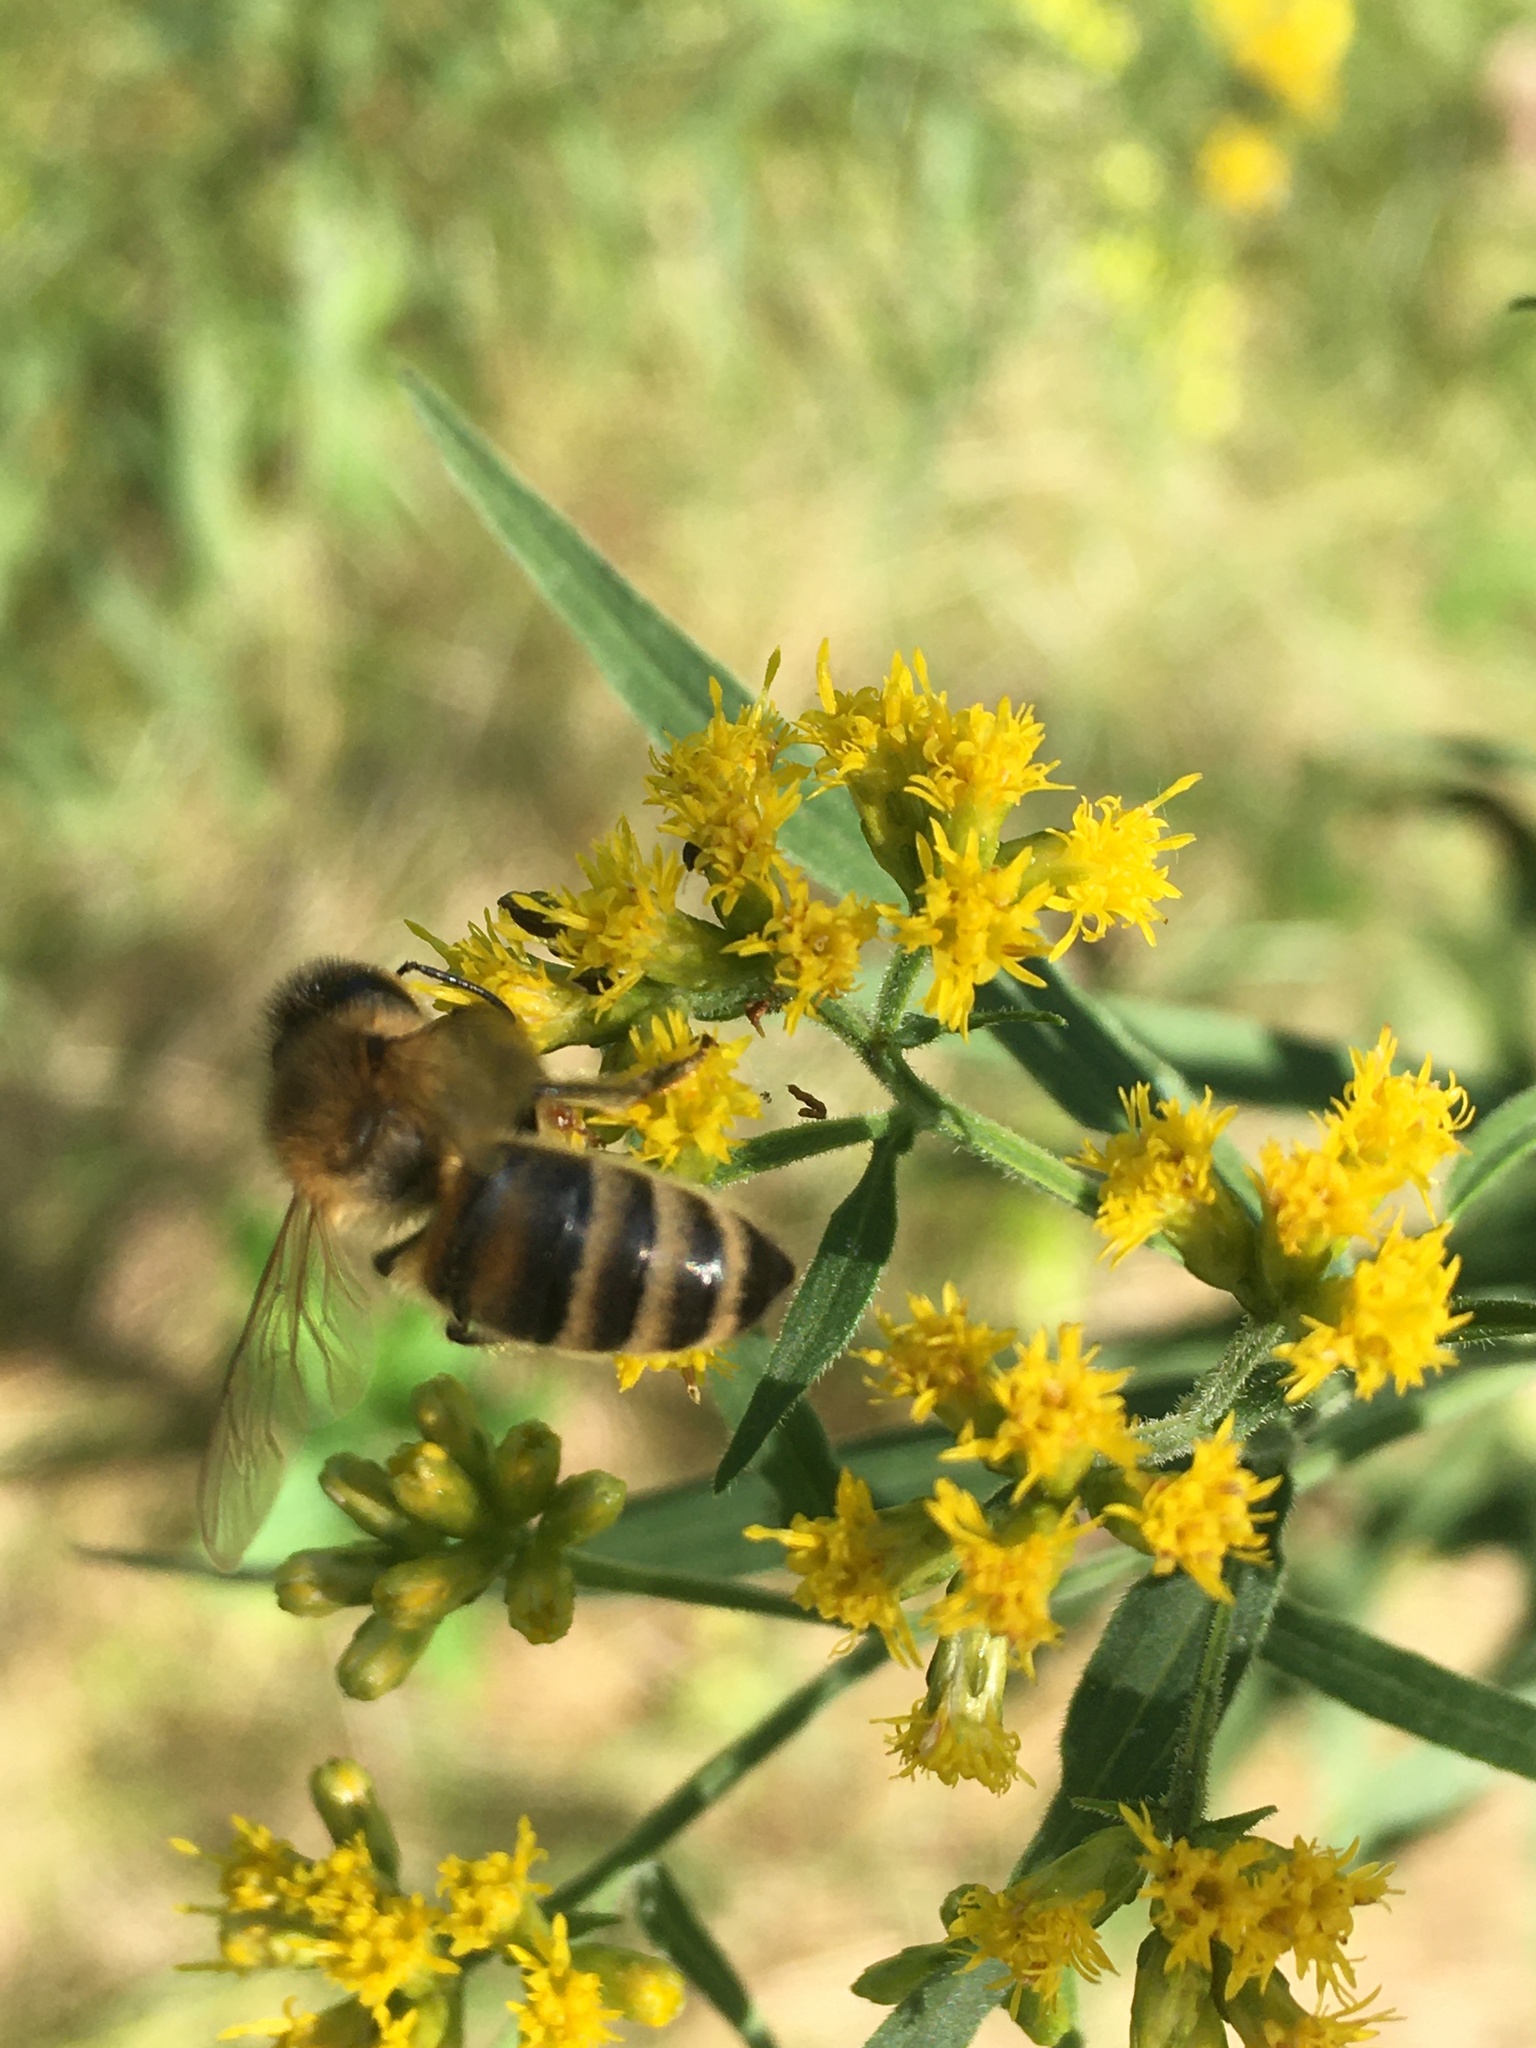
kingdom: Animalia
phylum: Arthropoda
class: Insecta
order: Hymenoptera
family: Apidae
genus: Apis
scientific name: Apis mellifera
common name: Honey bee
